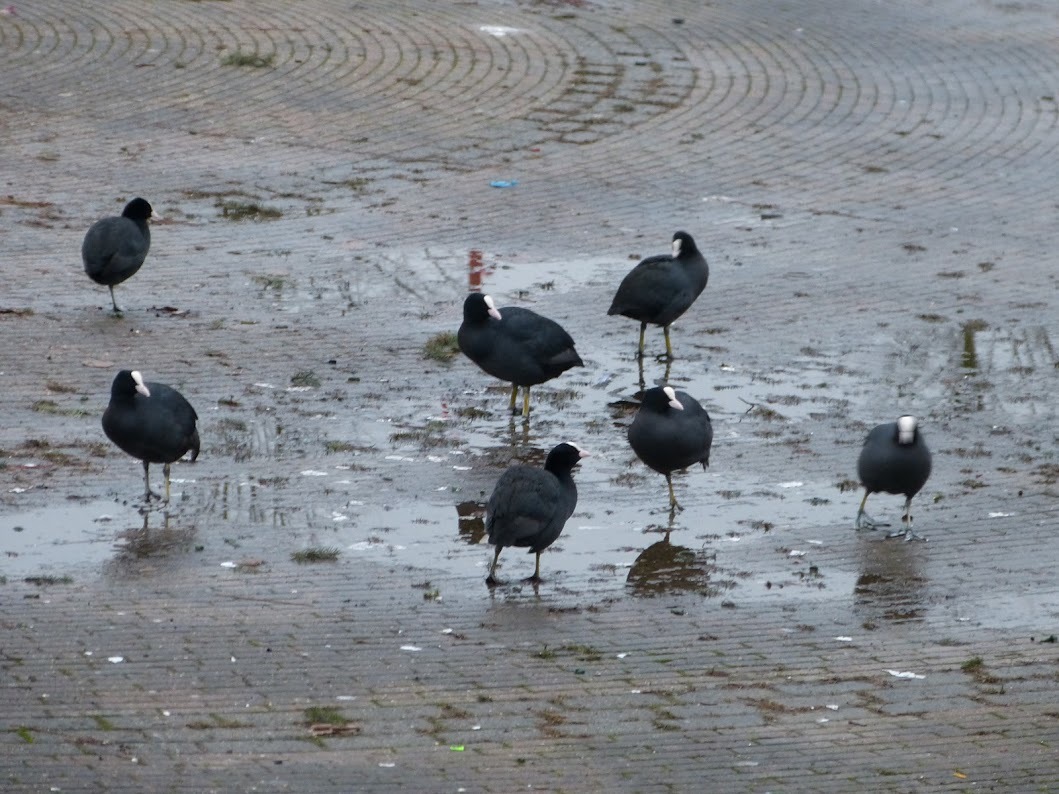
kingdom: Animalia
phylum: Chordata
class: Aves
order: Gruiformes
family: Rallidae
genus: Fulica
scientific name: Fulica atra
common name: Eurasian coot
